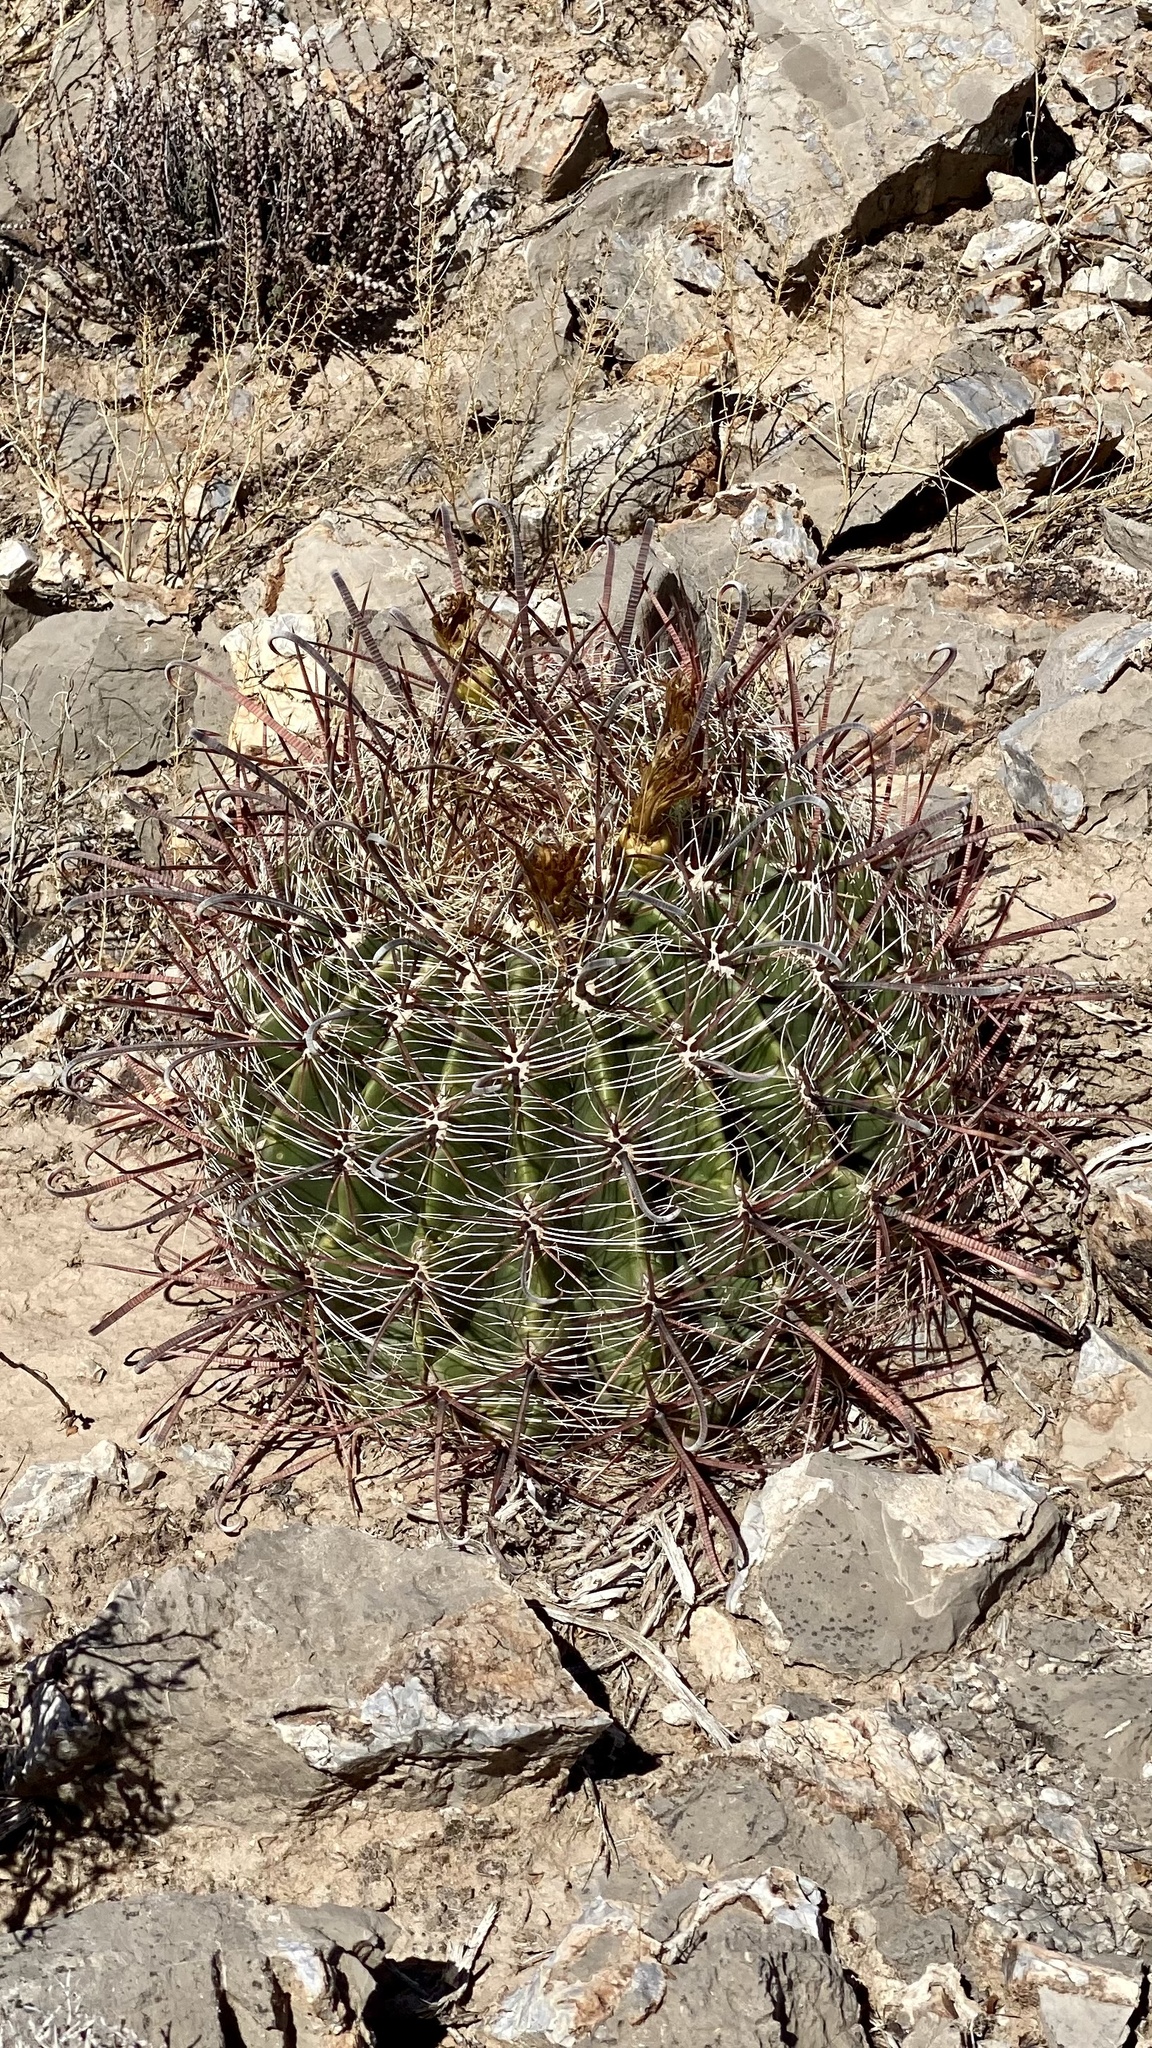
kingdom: Plantae
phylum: Tracheophyta
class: Magnoliopsida
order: Caryophyllales
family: Cactaceae
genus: Ferocactus
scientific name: Ferocactus wislizeni
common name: Candy barrel cactus
